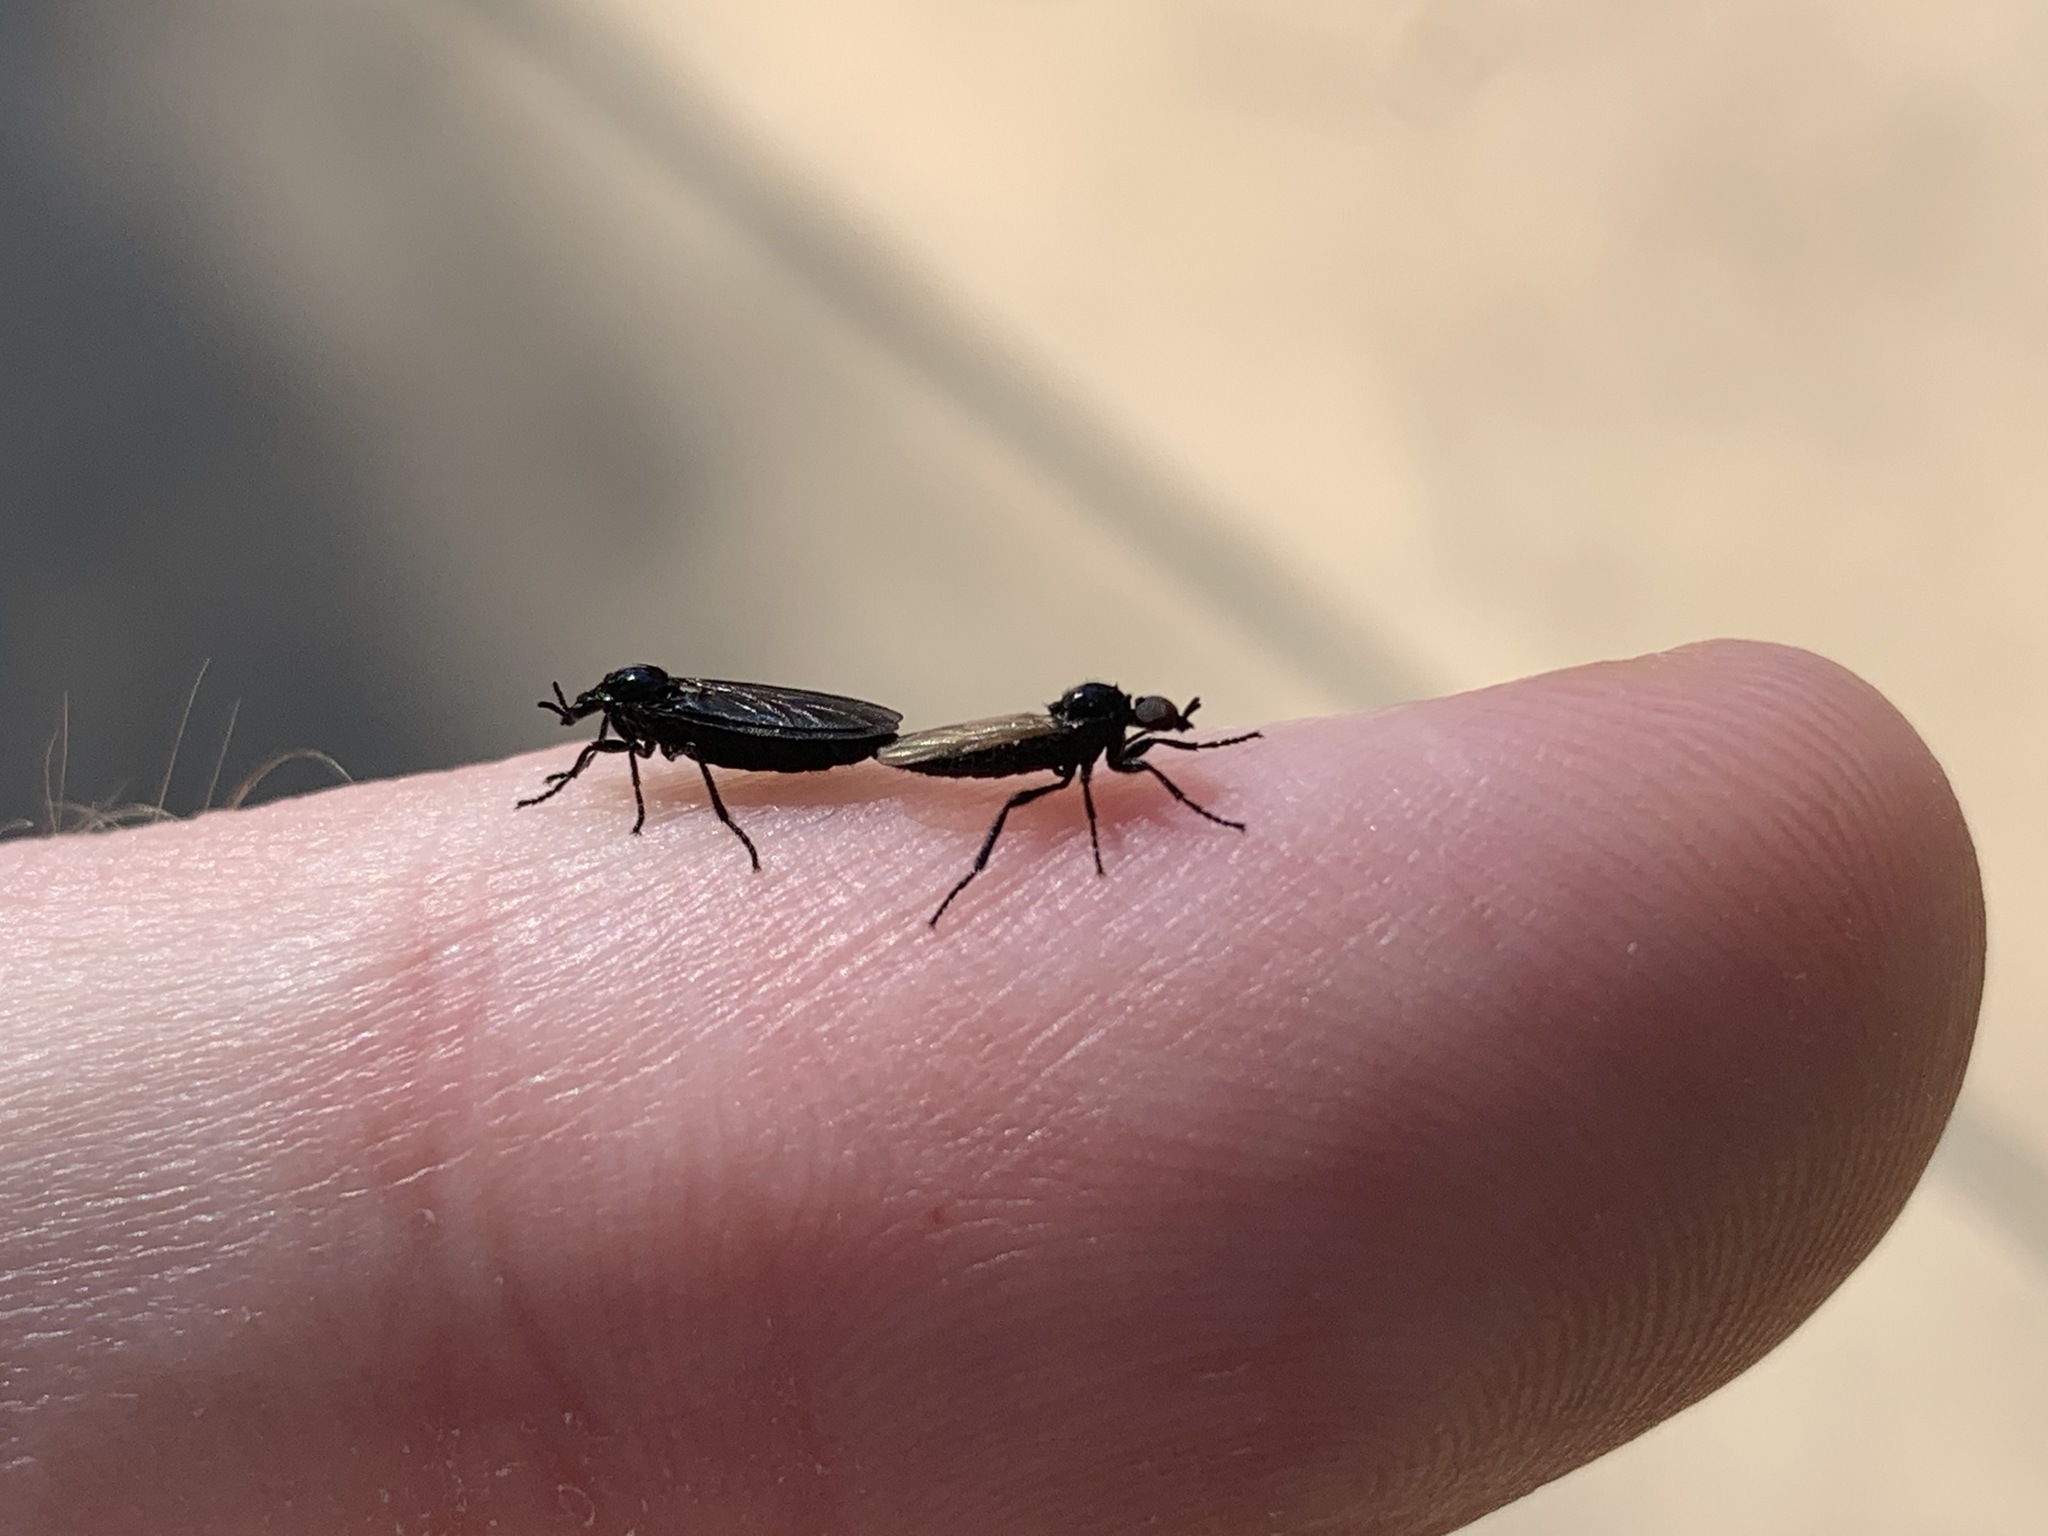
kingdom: Animalia
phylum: Arthropoda
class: Insecta
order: Diptera
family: Bibionidae
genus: Dilophus
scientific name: Dilophus orbatus
